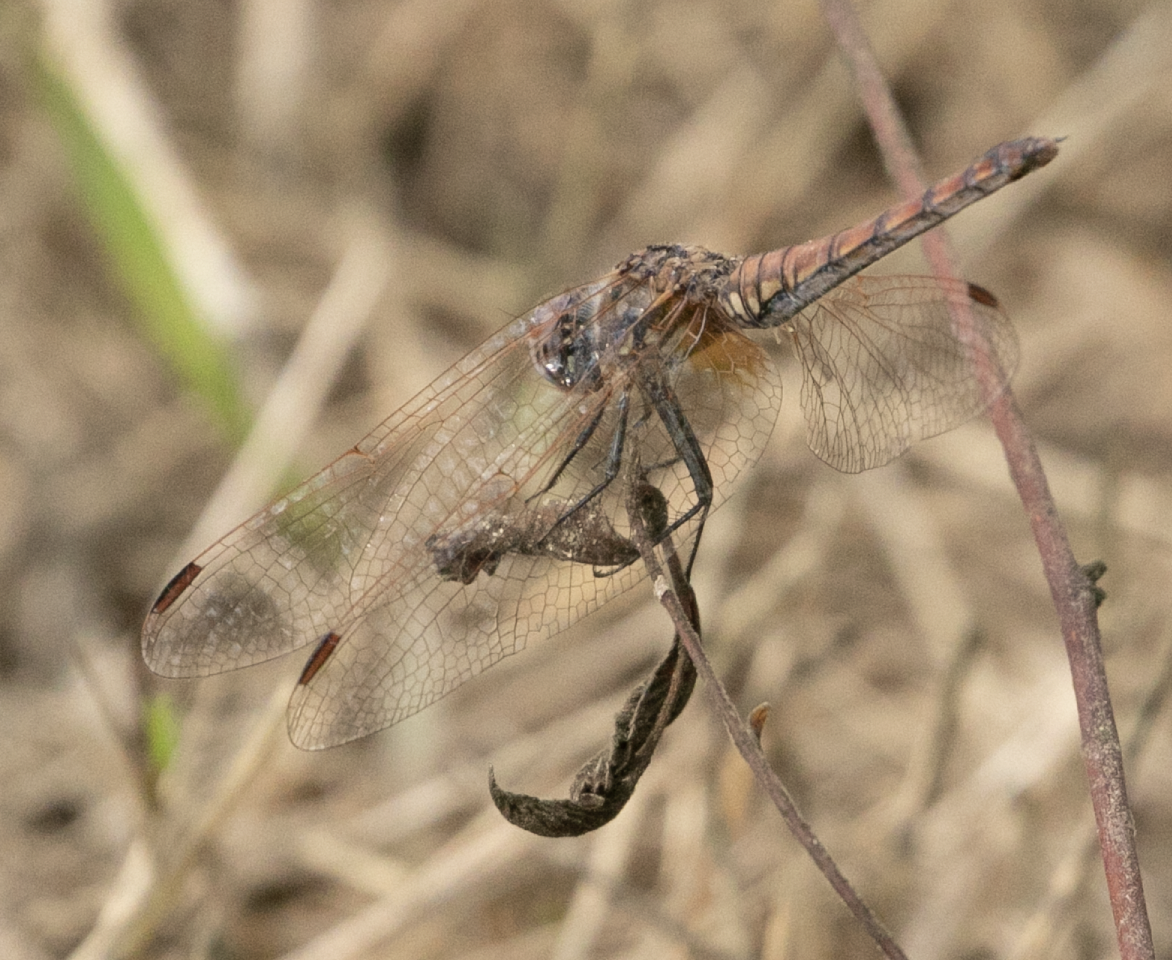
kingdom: Animalia
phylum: Arthropoda
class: Insecta
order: Odonata
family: Libellulidae
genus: Trithemis
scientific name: Trithemis annulata
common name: Violet dropwing
